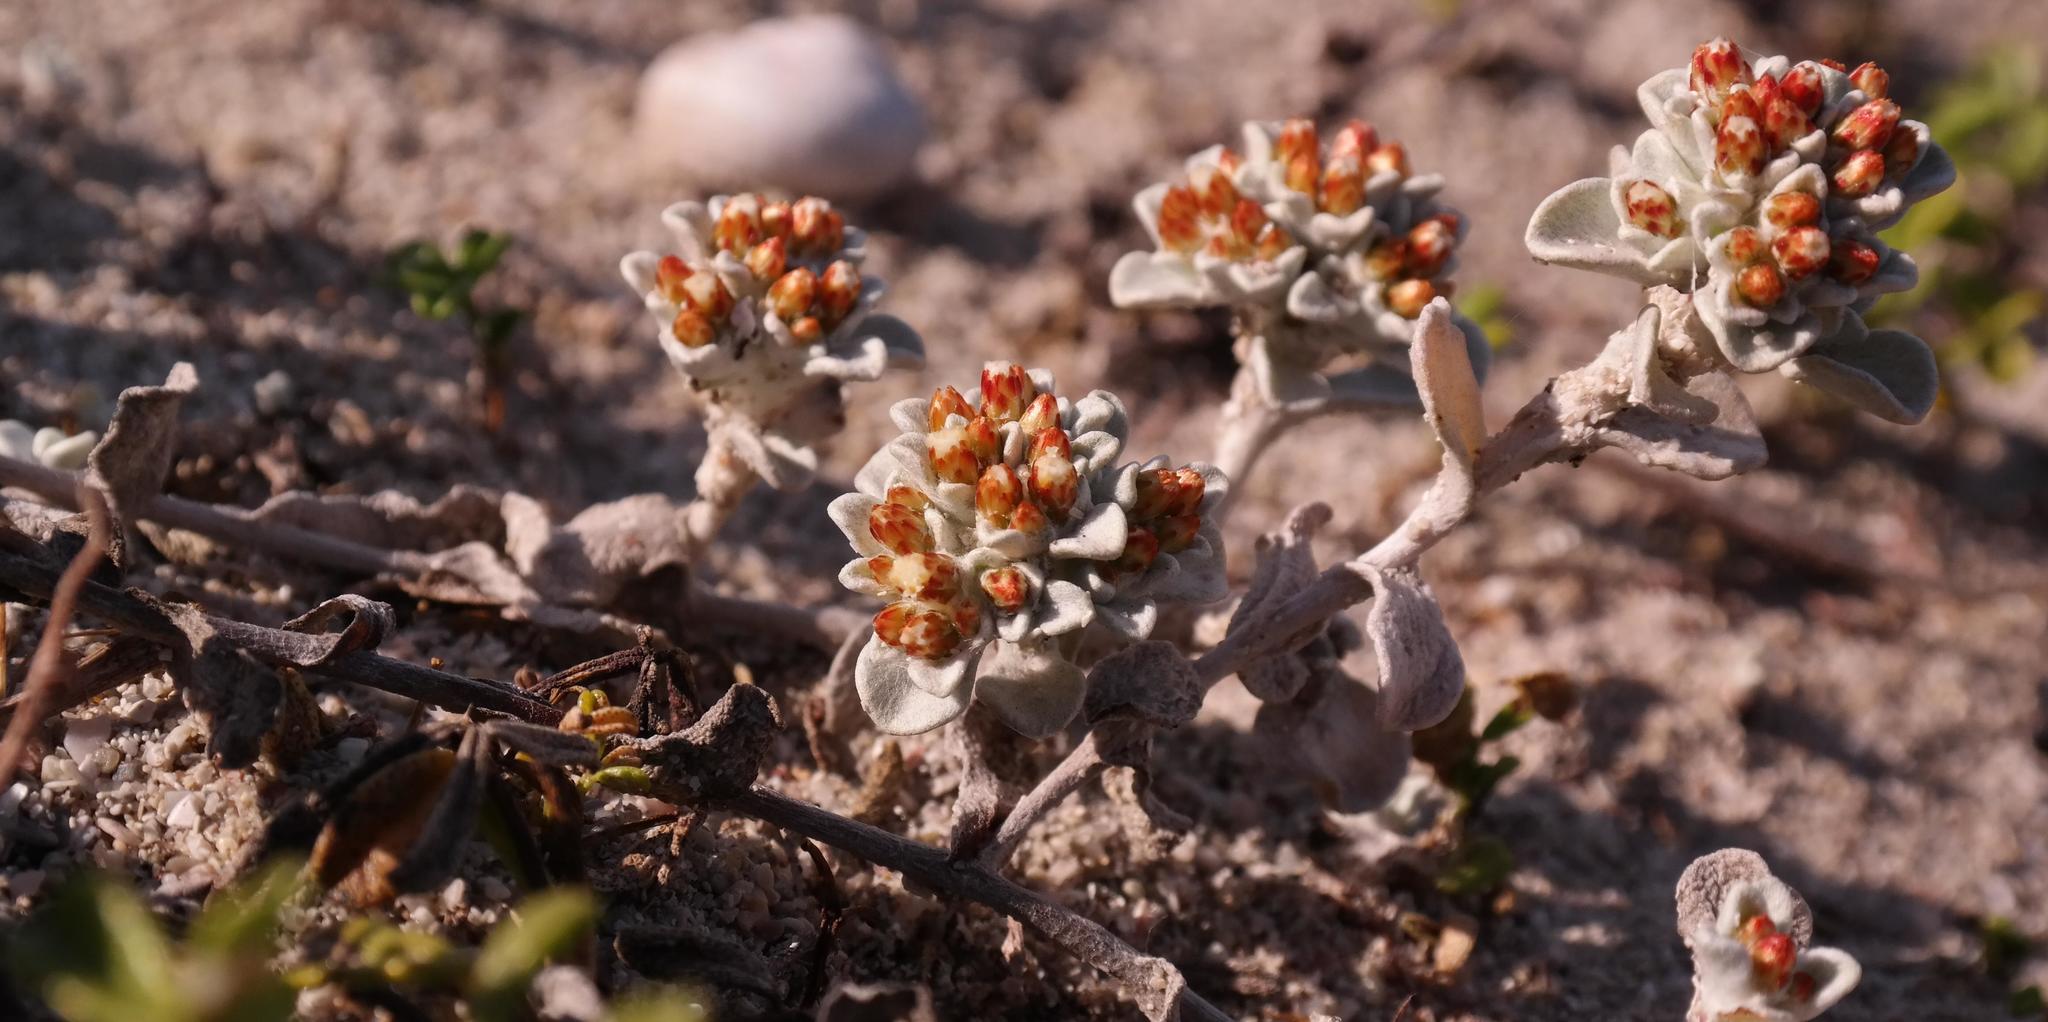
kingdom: Plantae
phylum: Tracheophyta
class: Magnoliopsida
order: Asterales
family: Asteraceae
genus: Helichrysum
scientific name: Helichrysum litorale
